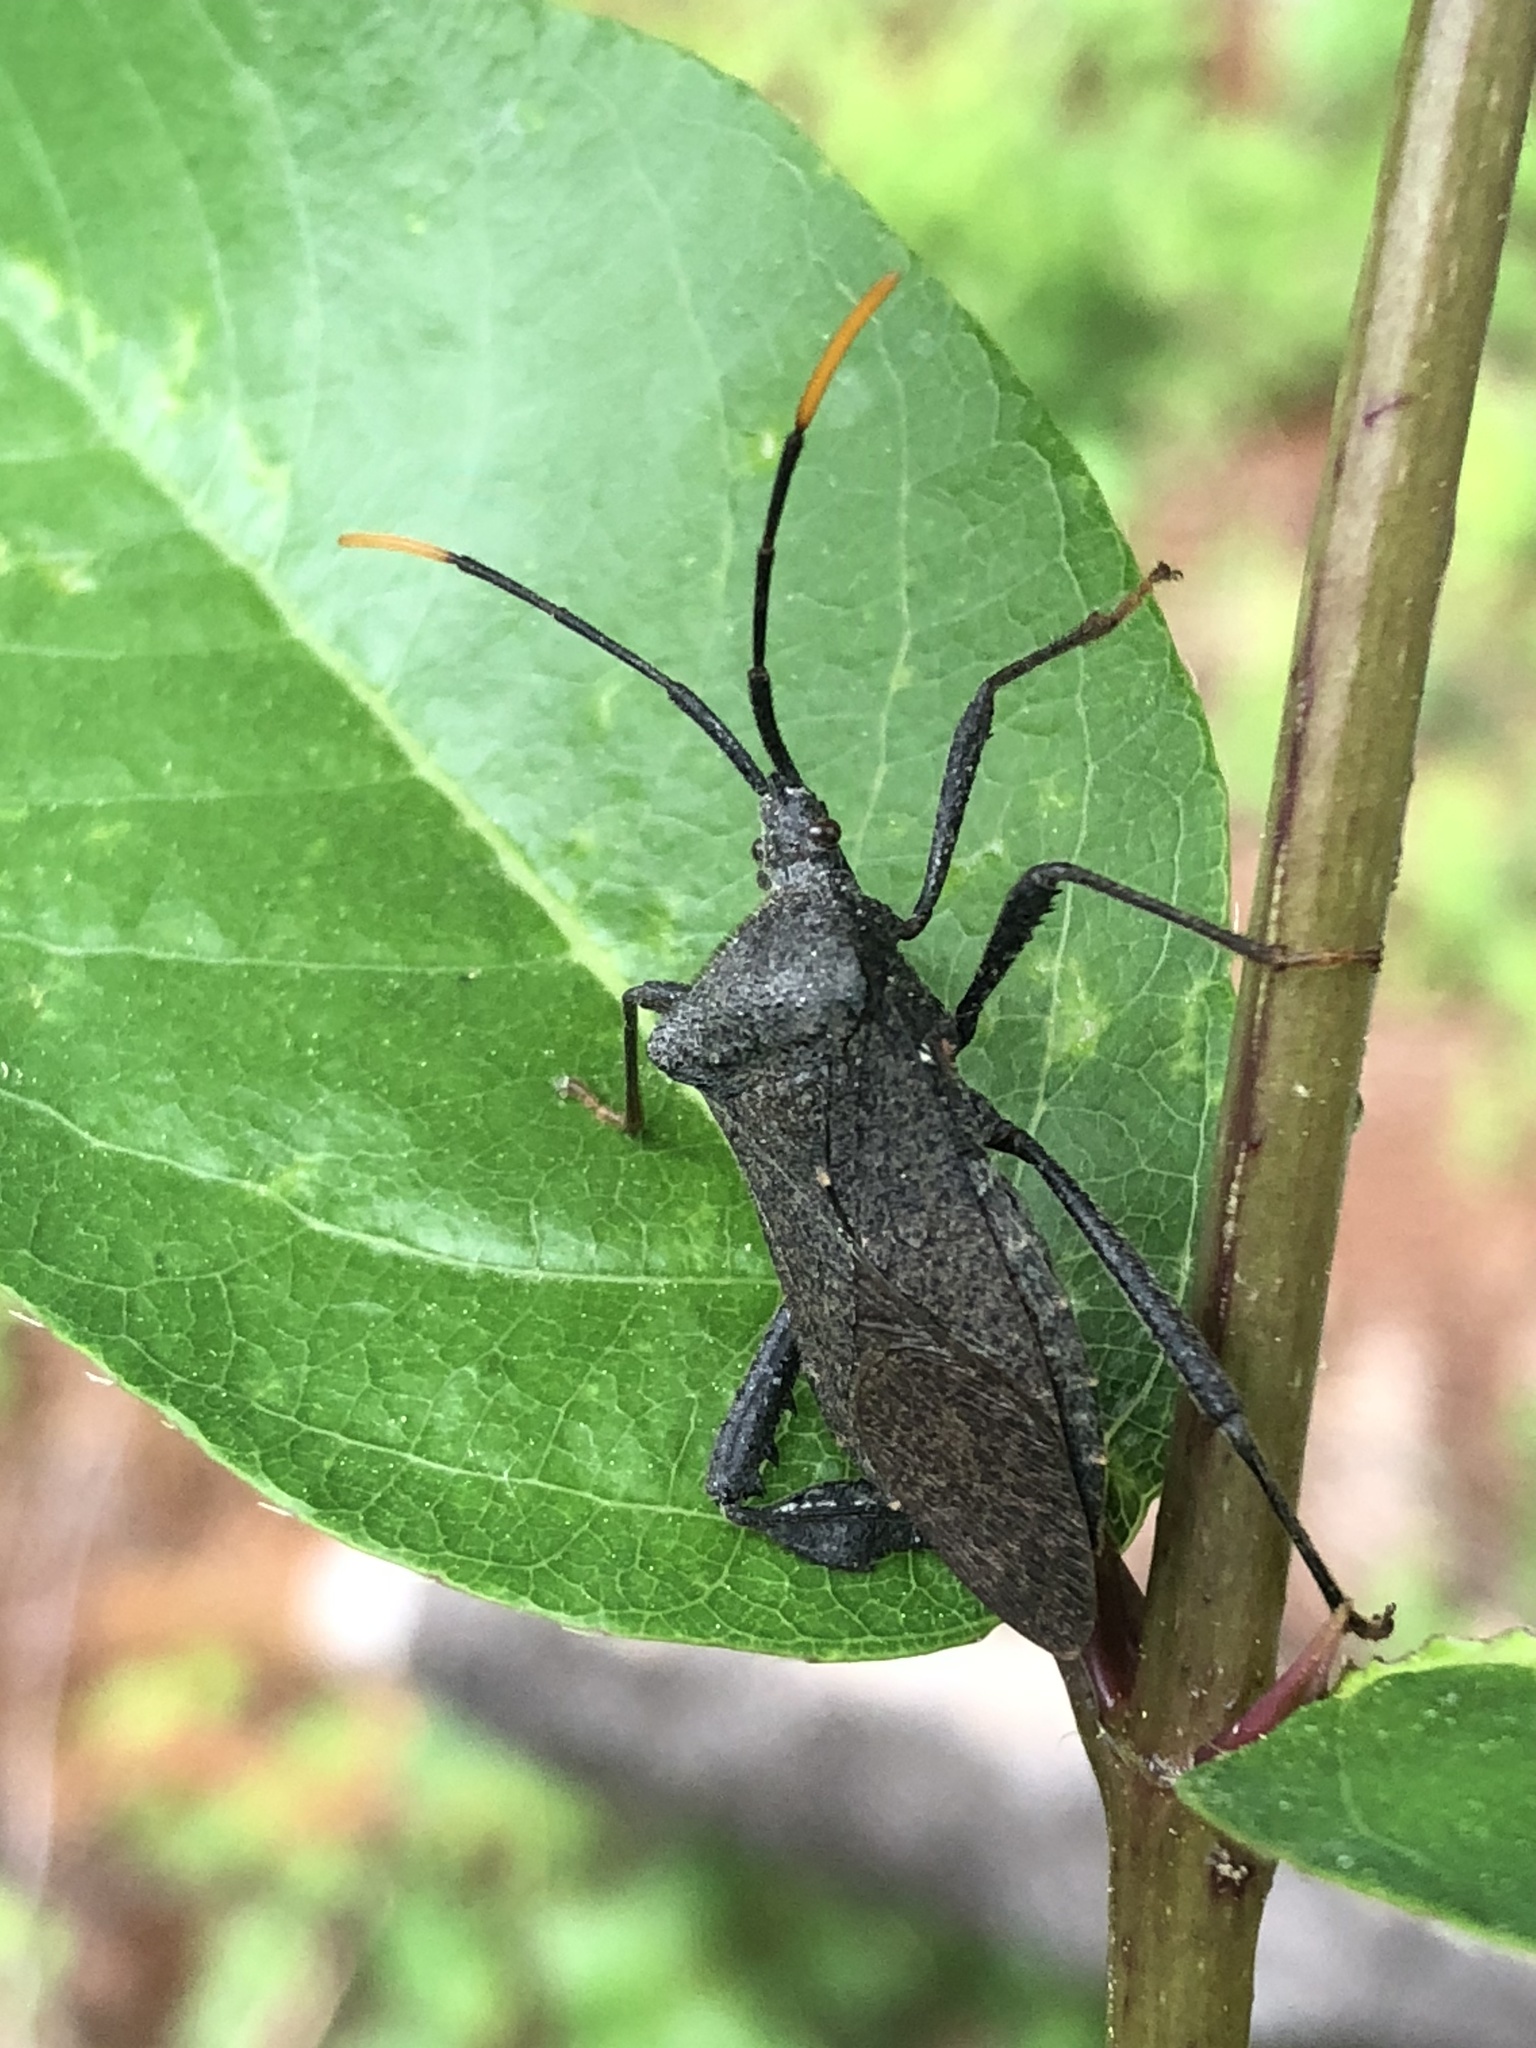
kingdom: Animalia
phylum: Arthropoda
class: Insecta
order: Hemiptera
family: Coreidae
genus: Acanthocephala
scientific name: Acanthocephala terminalis
